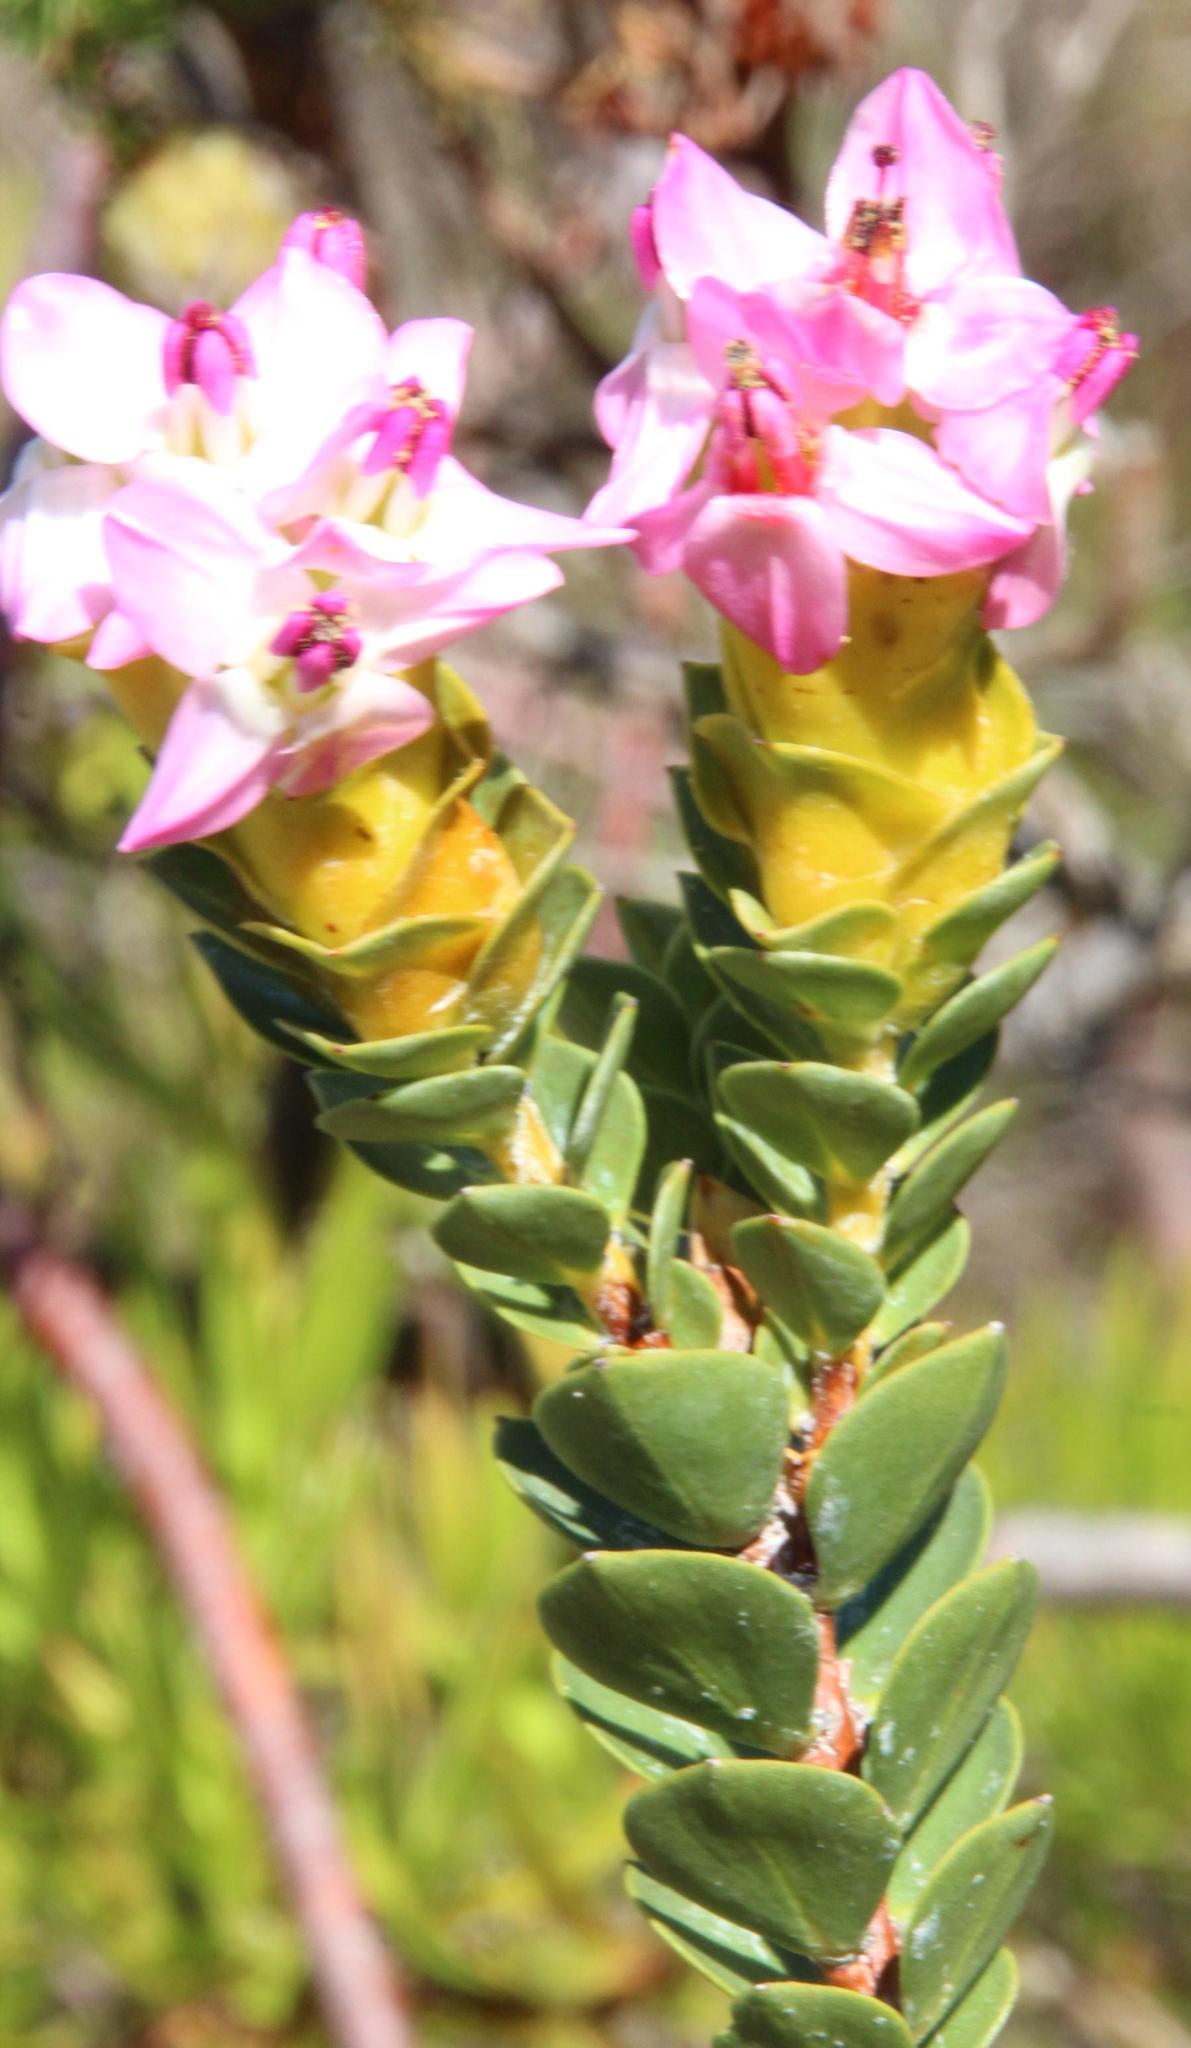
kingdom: Plantae
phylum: Tracheophyta
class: Magnoliopsida
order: Myrtales
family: Penaeaceae
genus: Saltera
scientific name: Saltera sarcocolla
